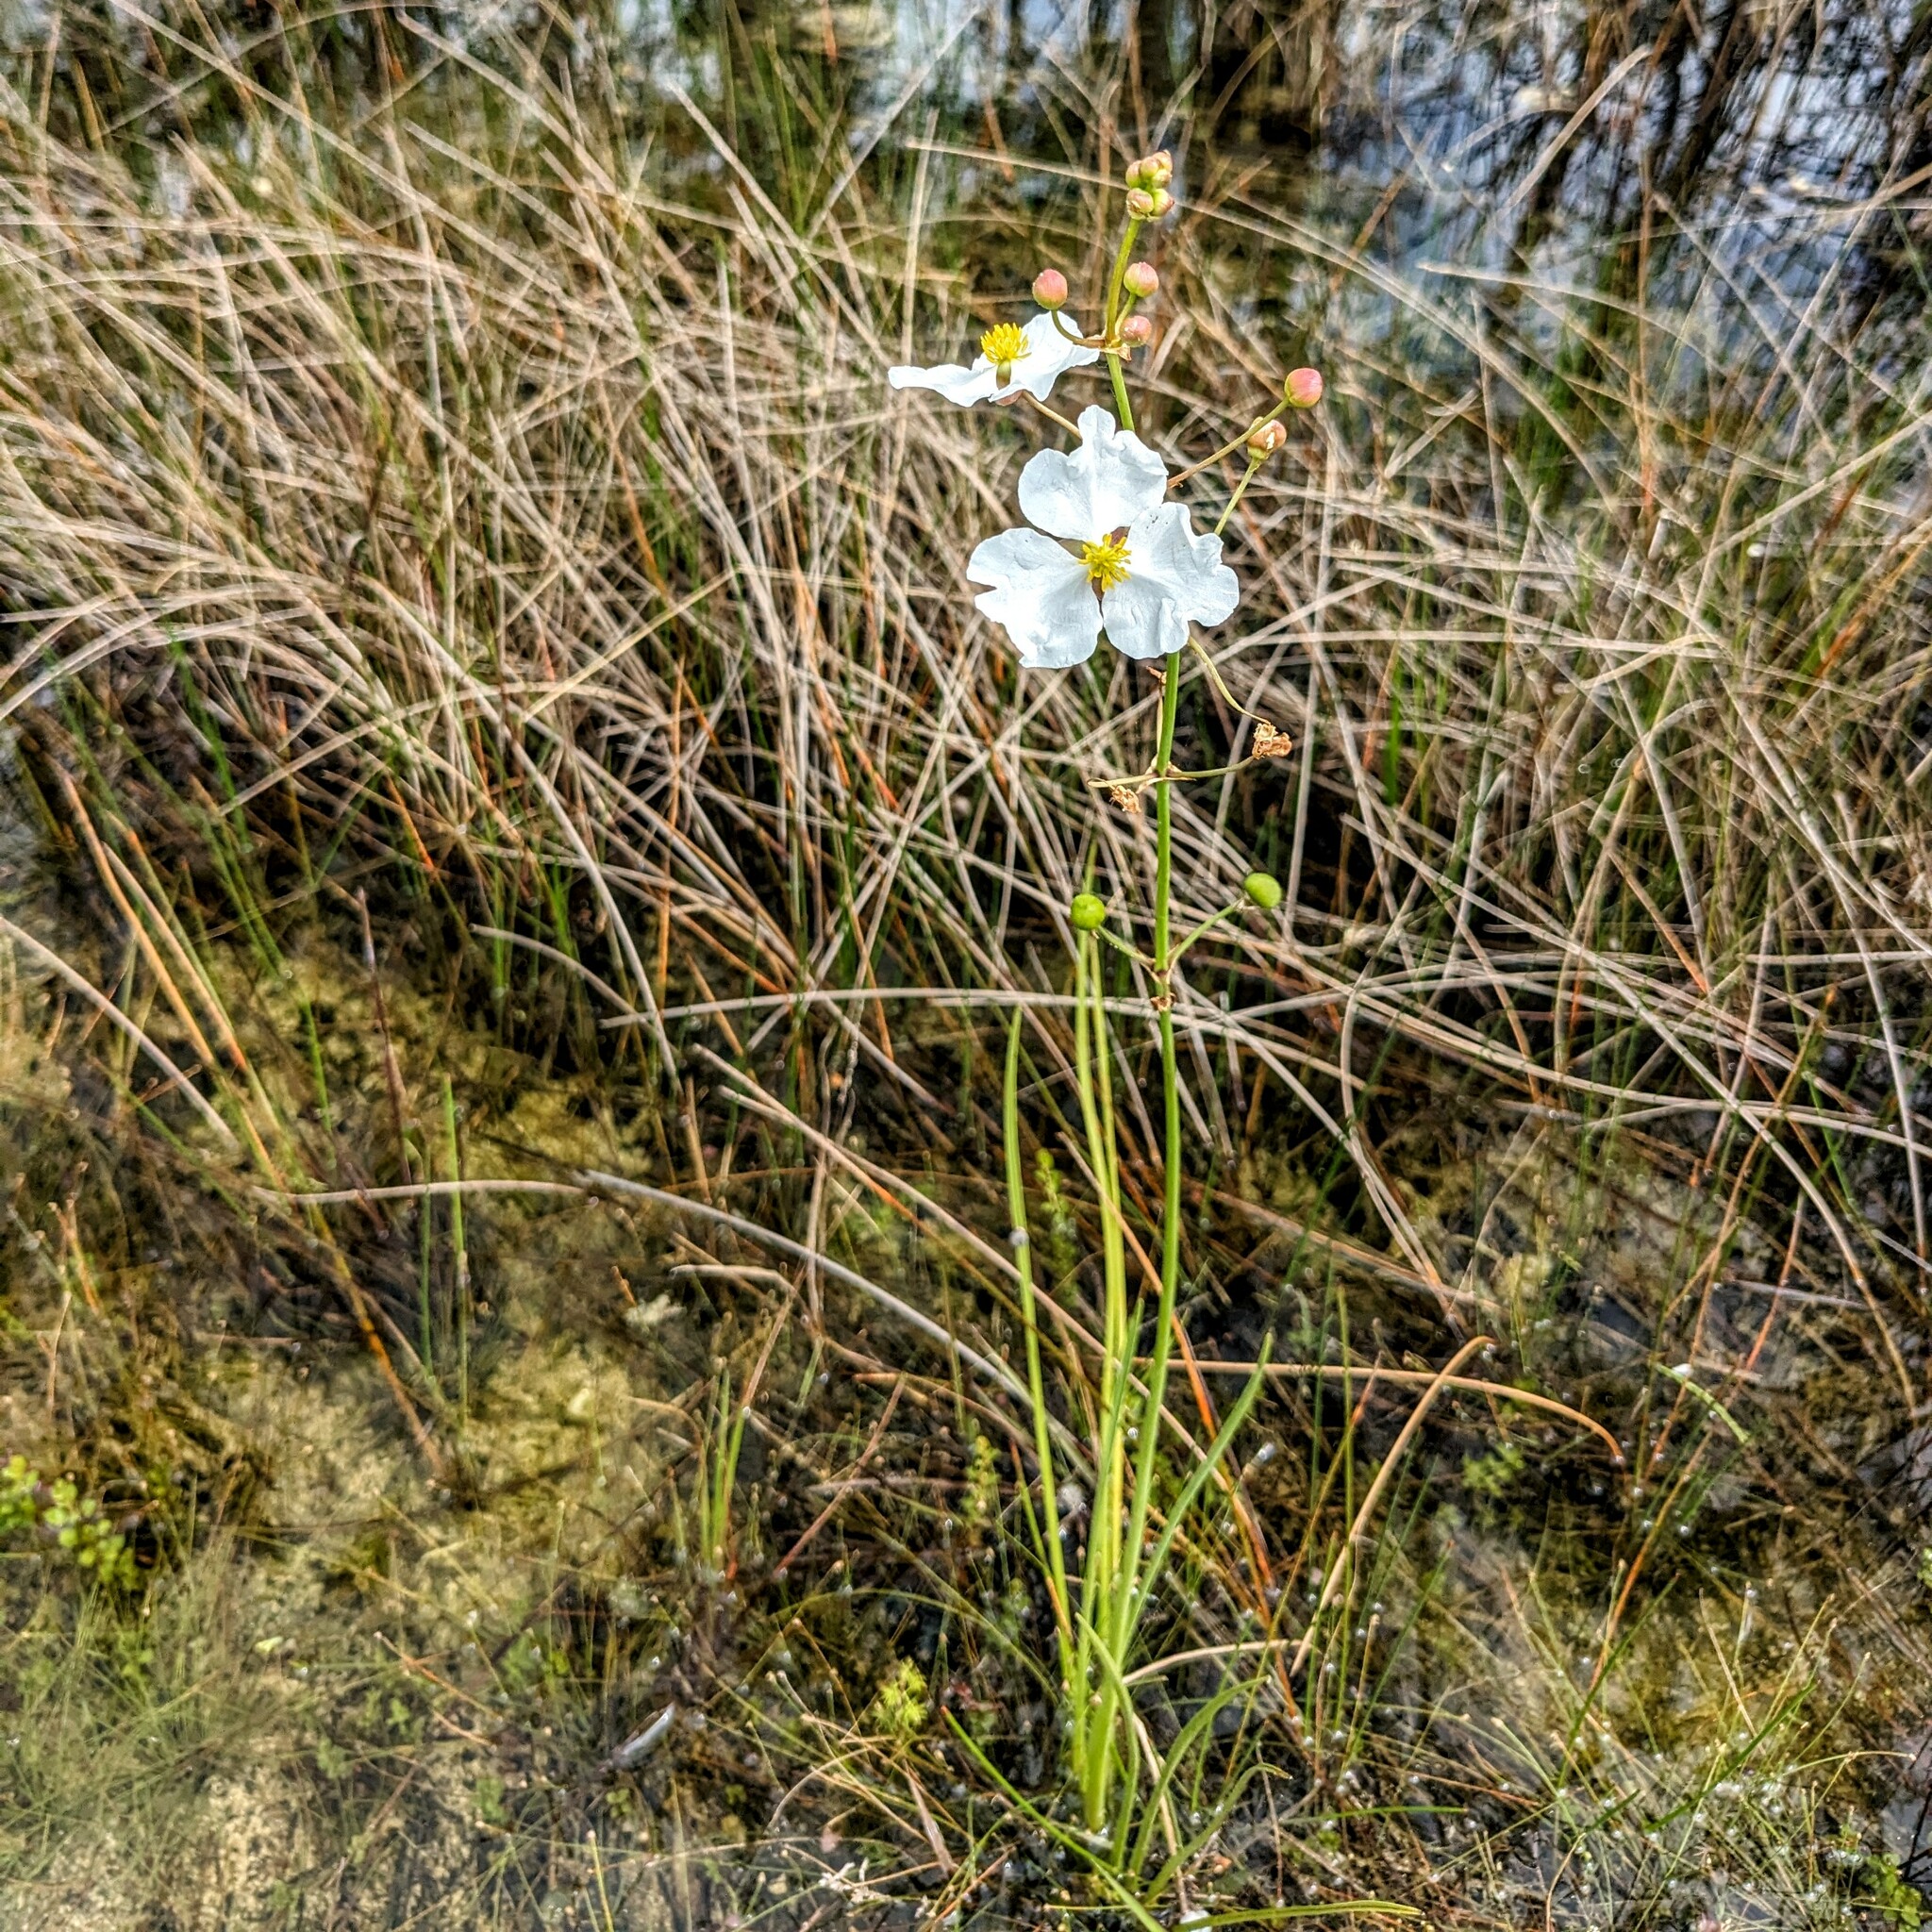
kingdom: Plantae
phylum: Tracheophyta
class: Liliopsida
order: Alismatales
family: Alismataceae
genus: Sagittaria
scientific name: Sagittaria lancifolia
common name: Lance-leaf arrowhead
